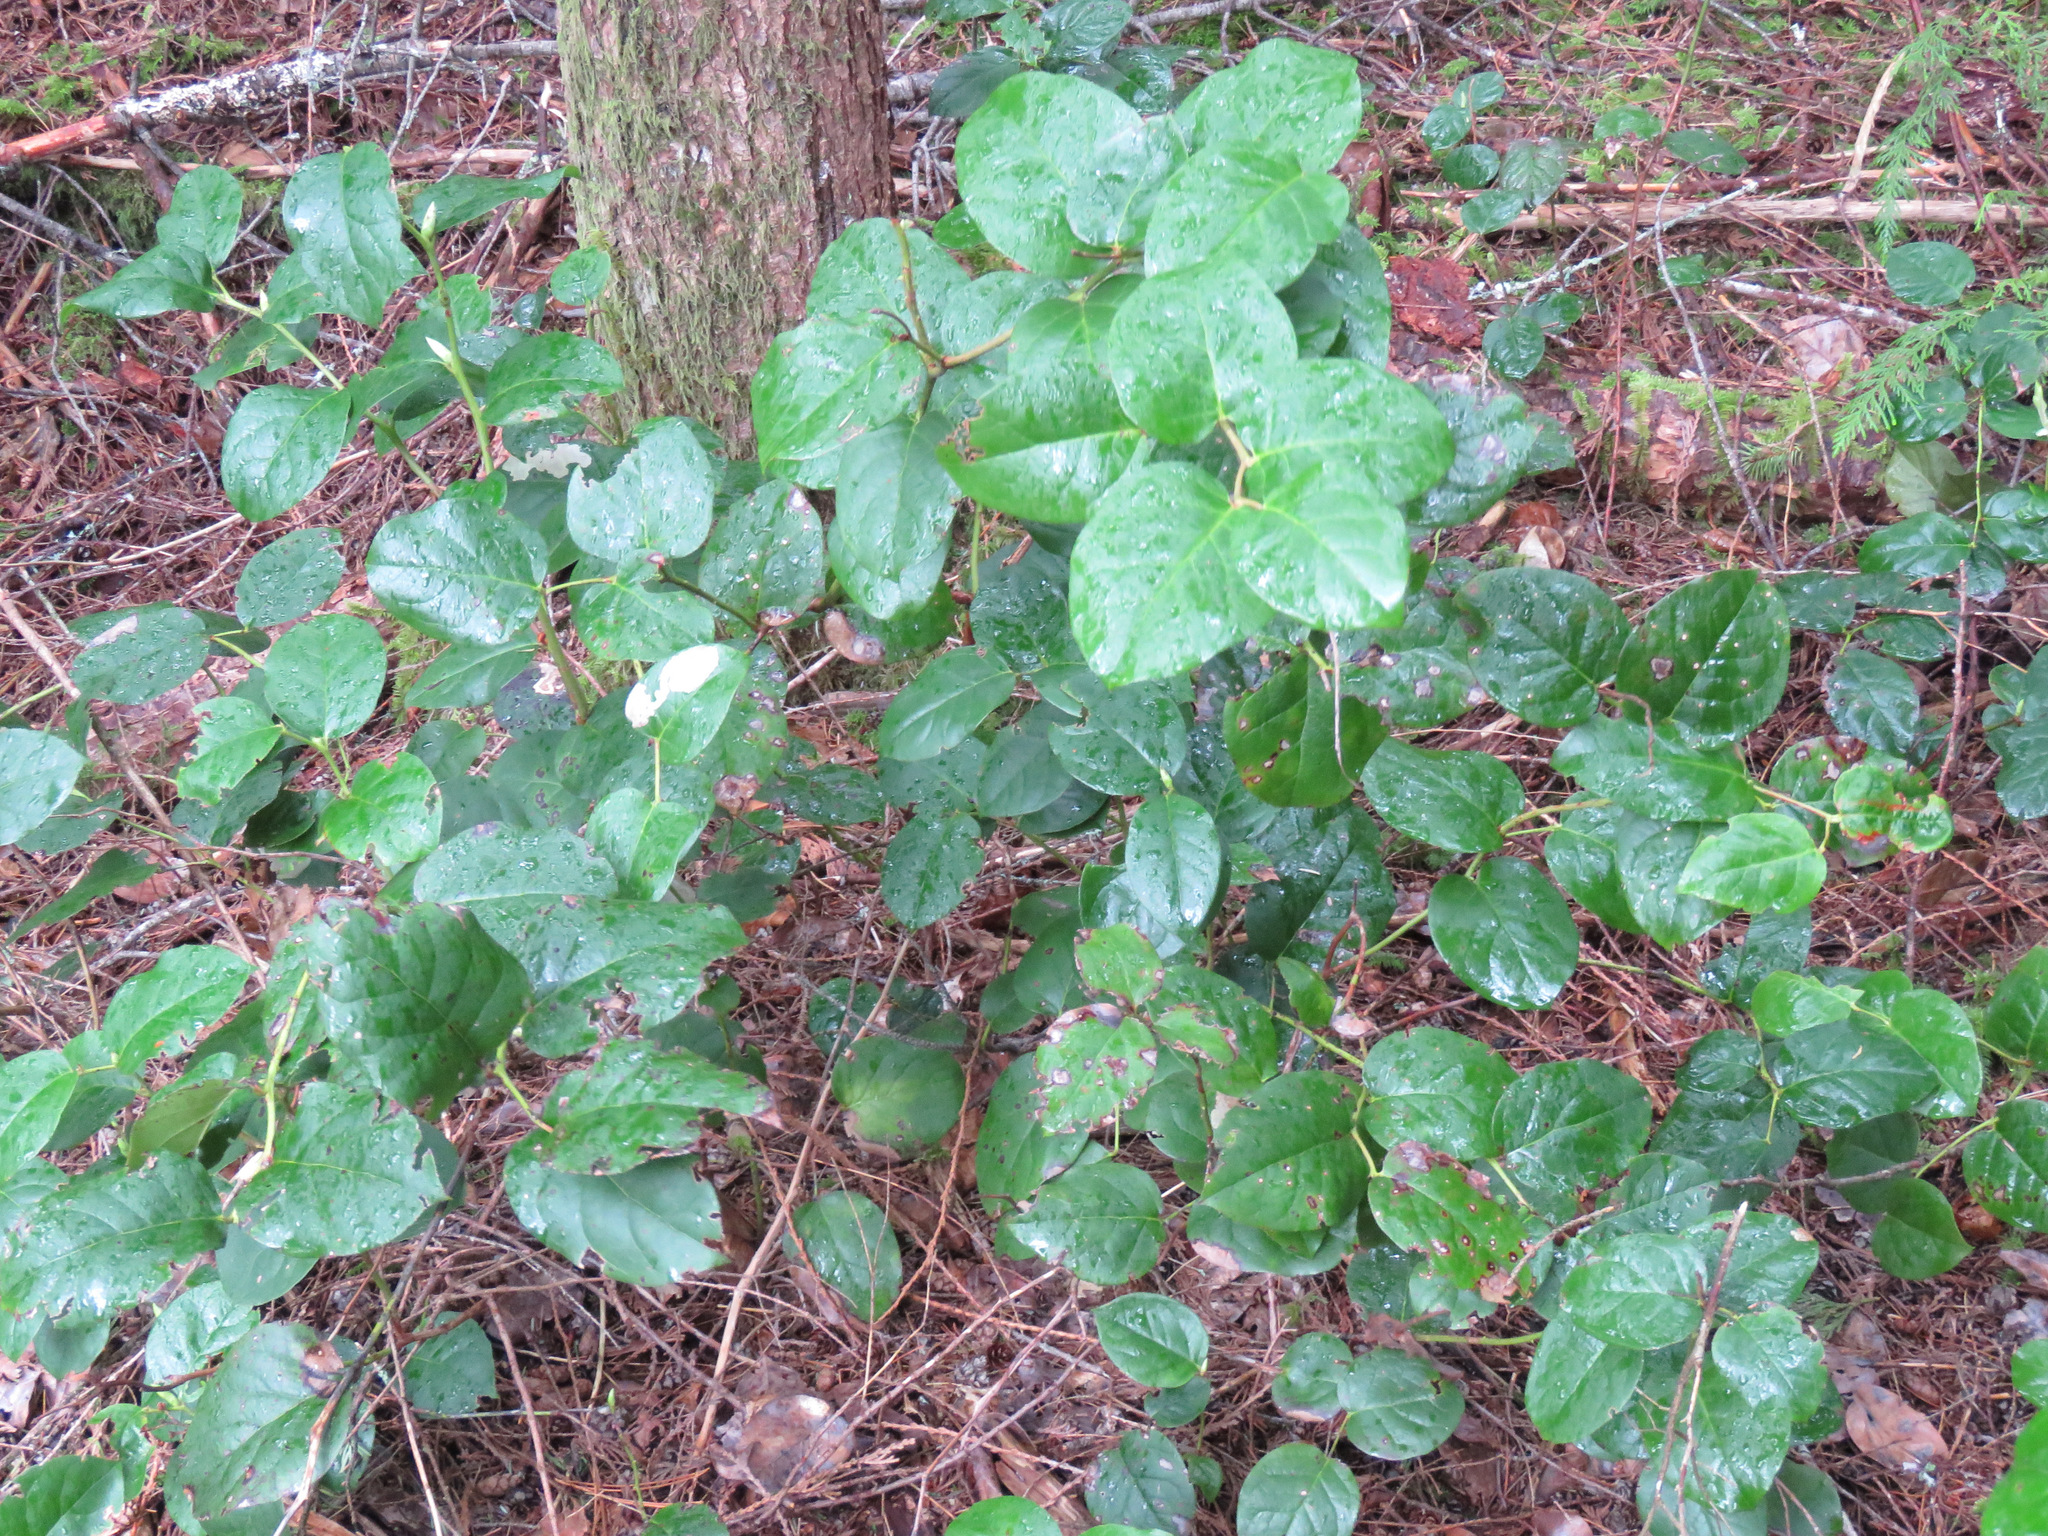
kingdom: Plantae
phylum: Tracheophyta
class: Magnoliopsida
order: Ericales
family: Ericaceae
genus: Gaultheria
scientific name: Gaultheria shallon
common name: Shallon
